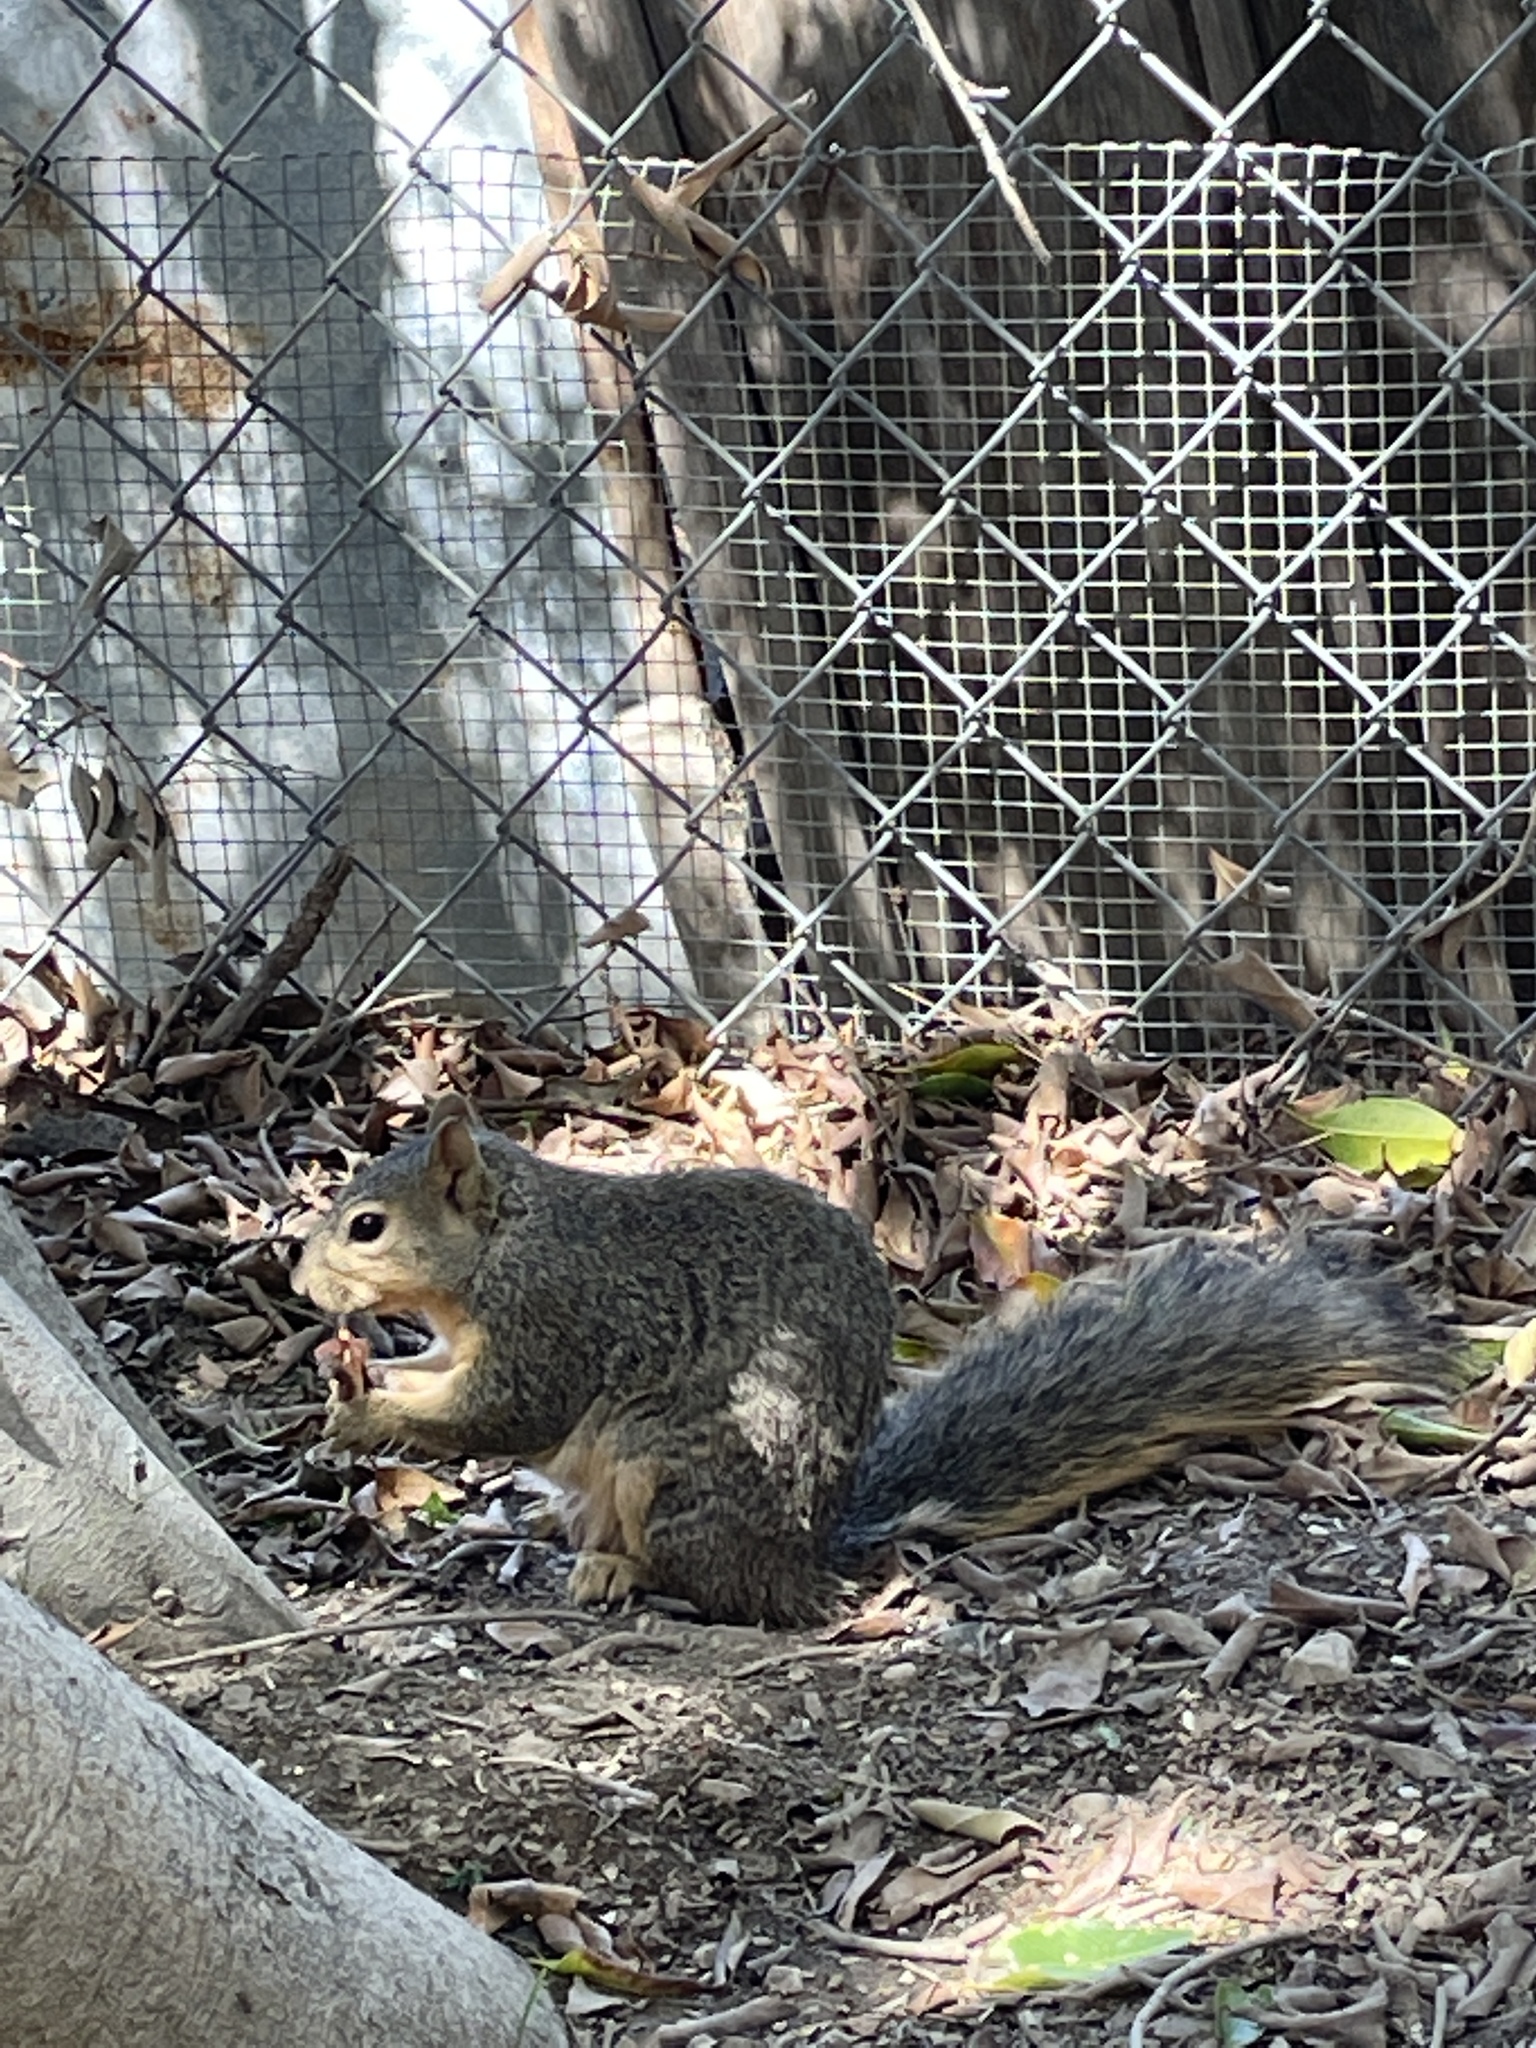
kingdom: Animalia
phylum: Chordata
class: Mammalia
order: Rodentia
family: Sciuridae
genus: Sciurus
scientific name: Sciurus niger
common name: Fox squirrel
